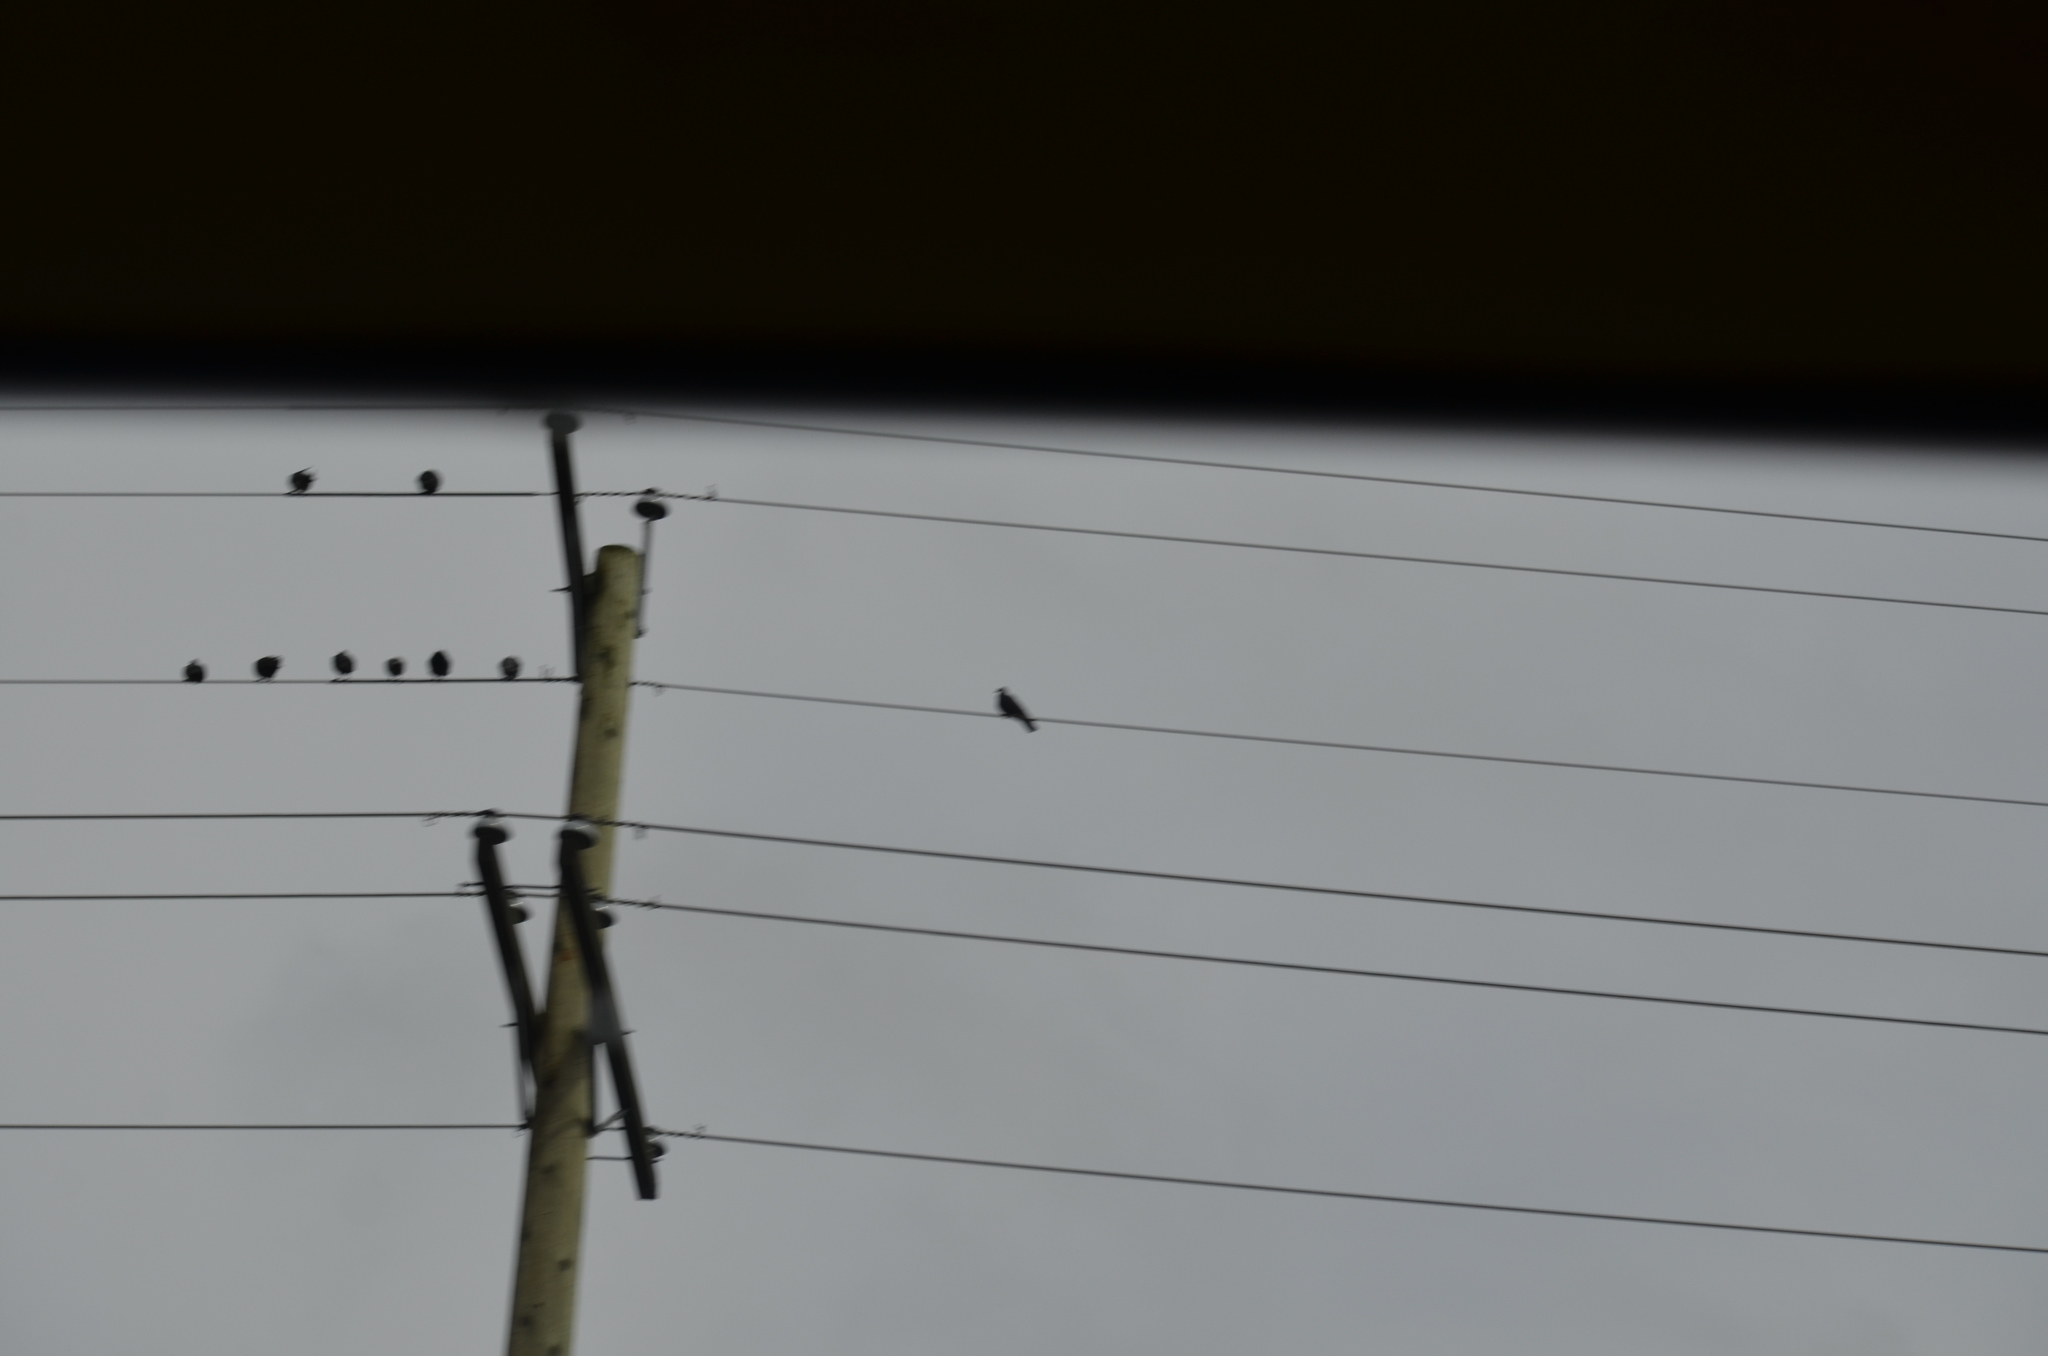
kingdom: Animalia
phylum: Chordata
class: Aves
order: Columbiformes
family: Columbidae
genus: Columba
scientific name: Columba livia
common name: Rock pigeon
